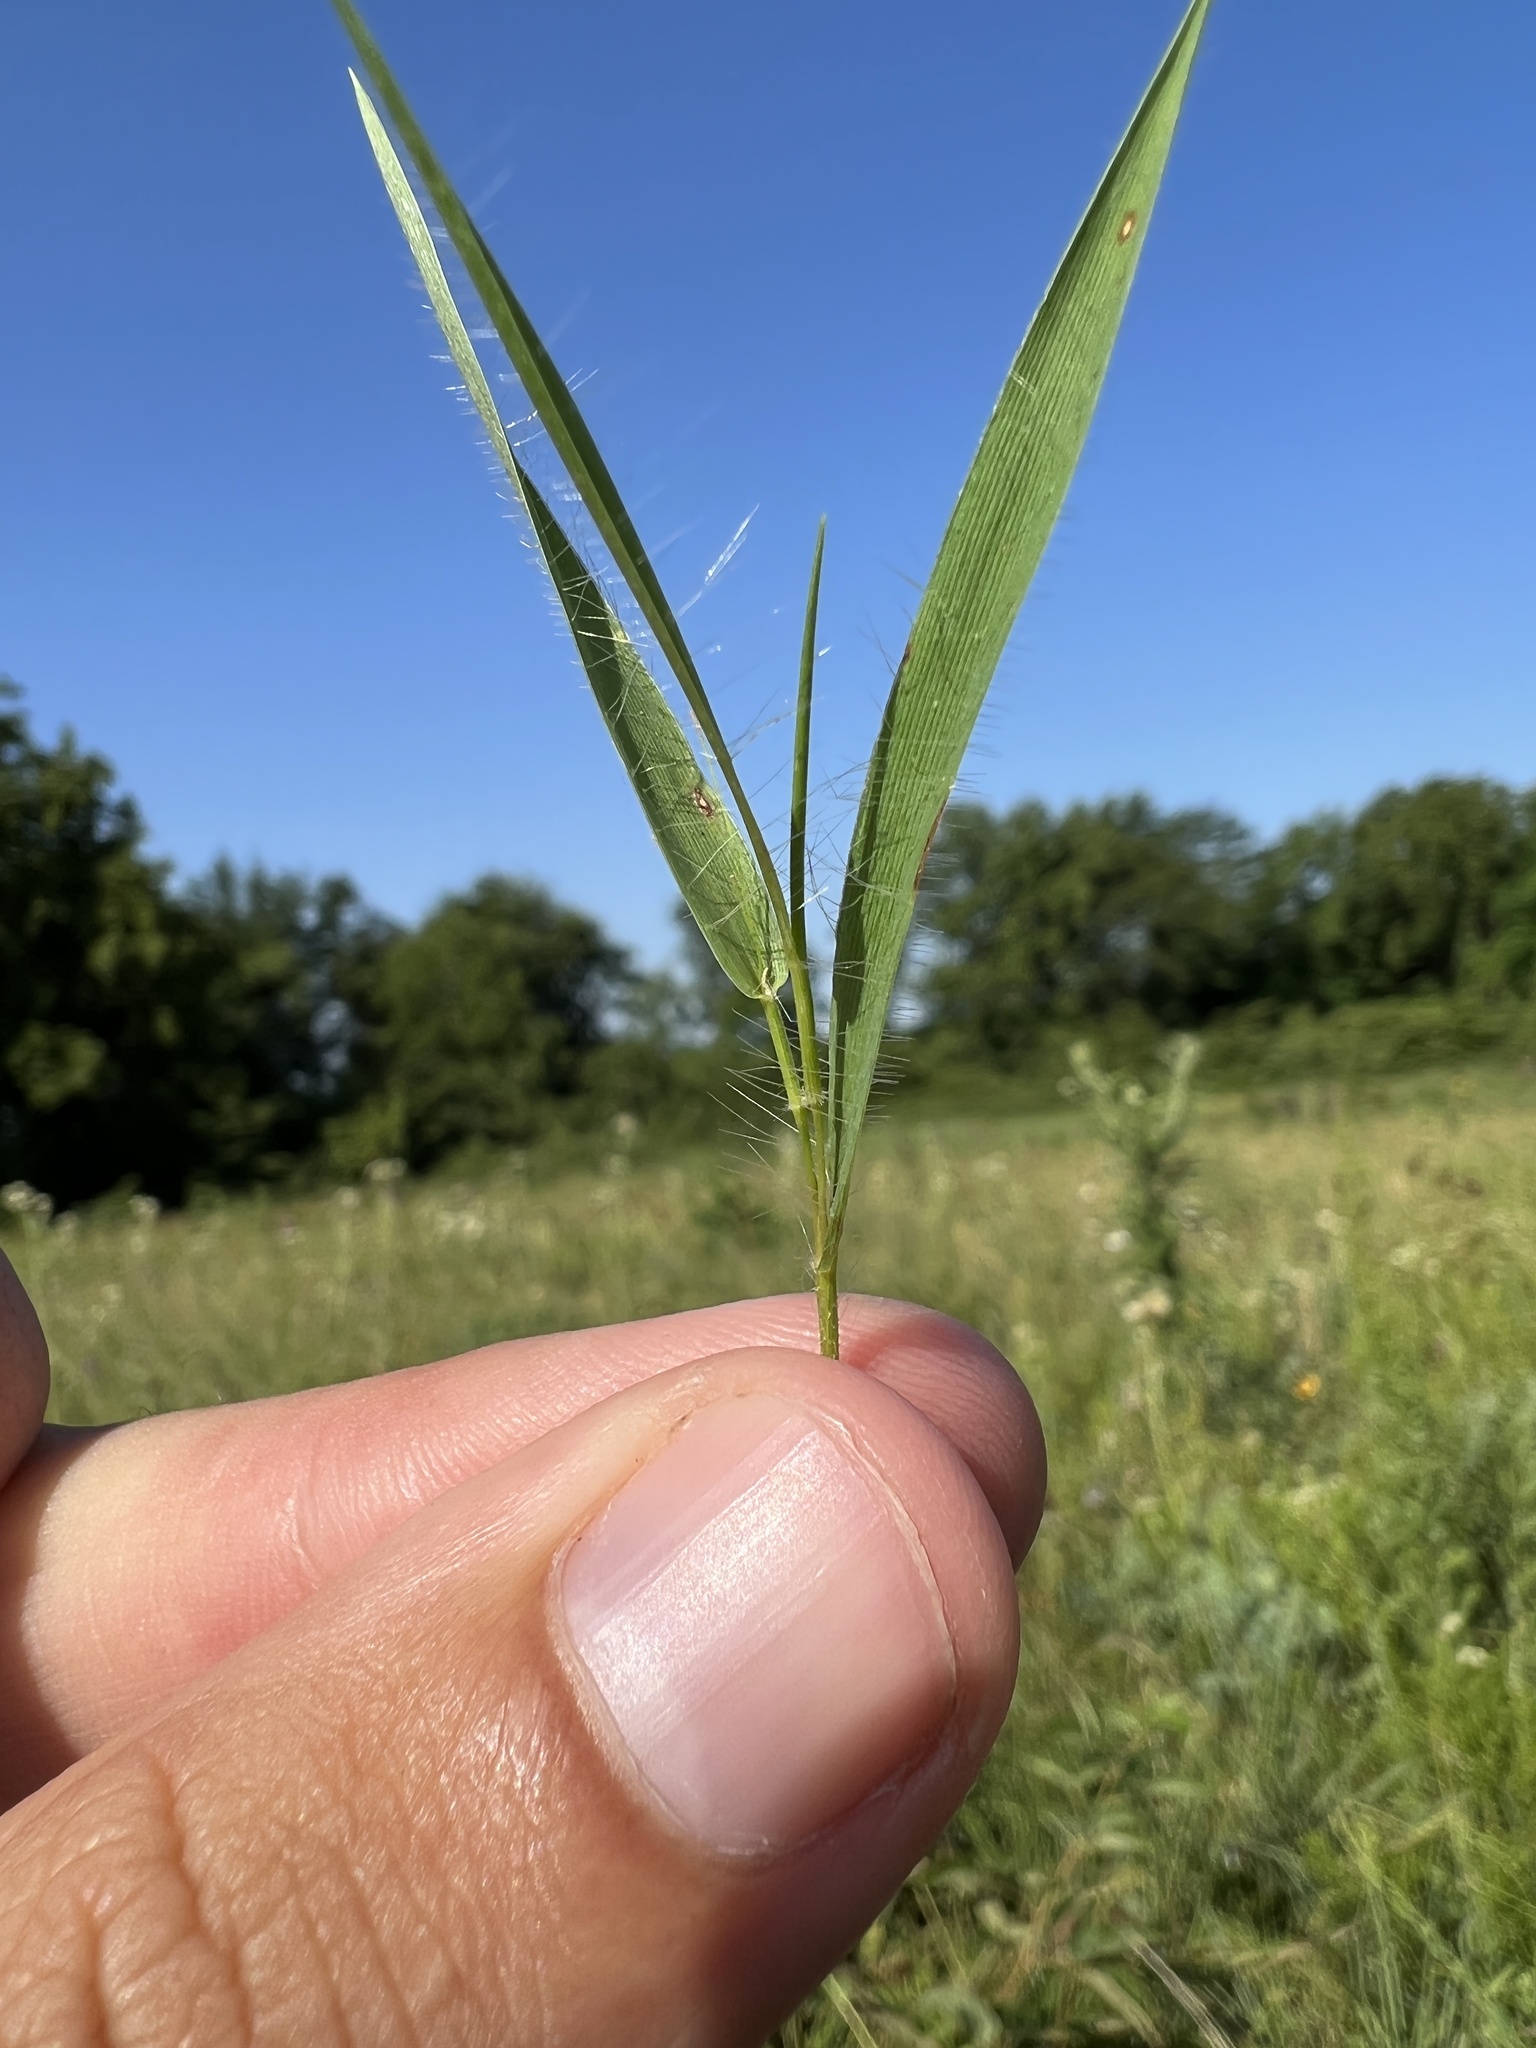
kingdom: Plantae
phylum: Tracheophyta
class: Liliopsida
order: Poales
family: Poaceae
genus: Dichanthelium
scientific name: Dichanthelium praecocius
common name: Early-branching panicgrass
